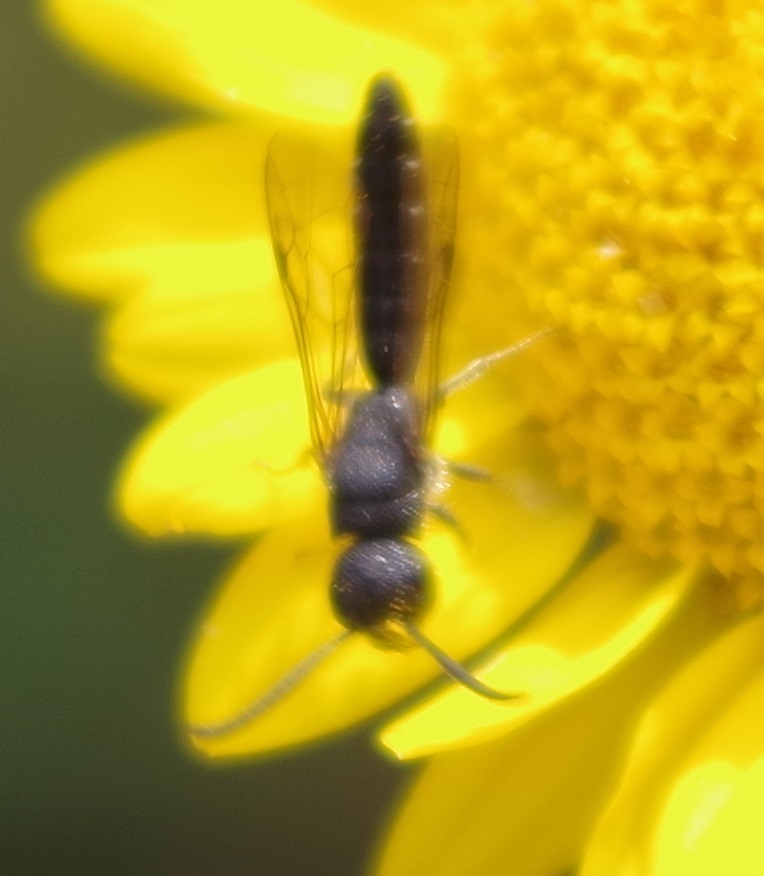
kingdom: Animalia
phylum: Arthropoda
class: Insecta
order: Hymenoptera
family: Sapygidae
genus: Sapygina
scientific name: Sapygina decemguttata
